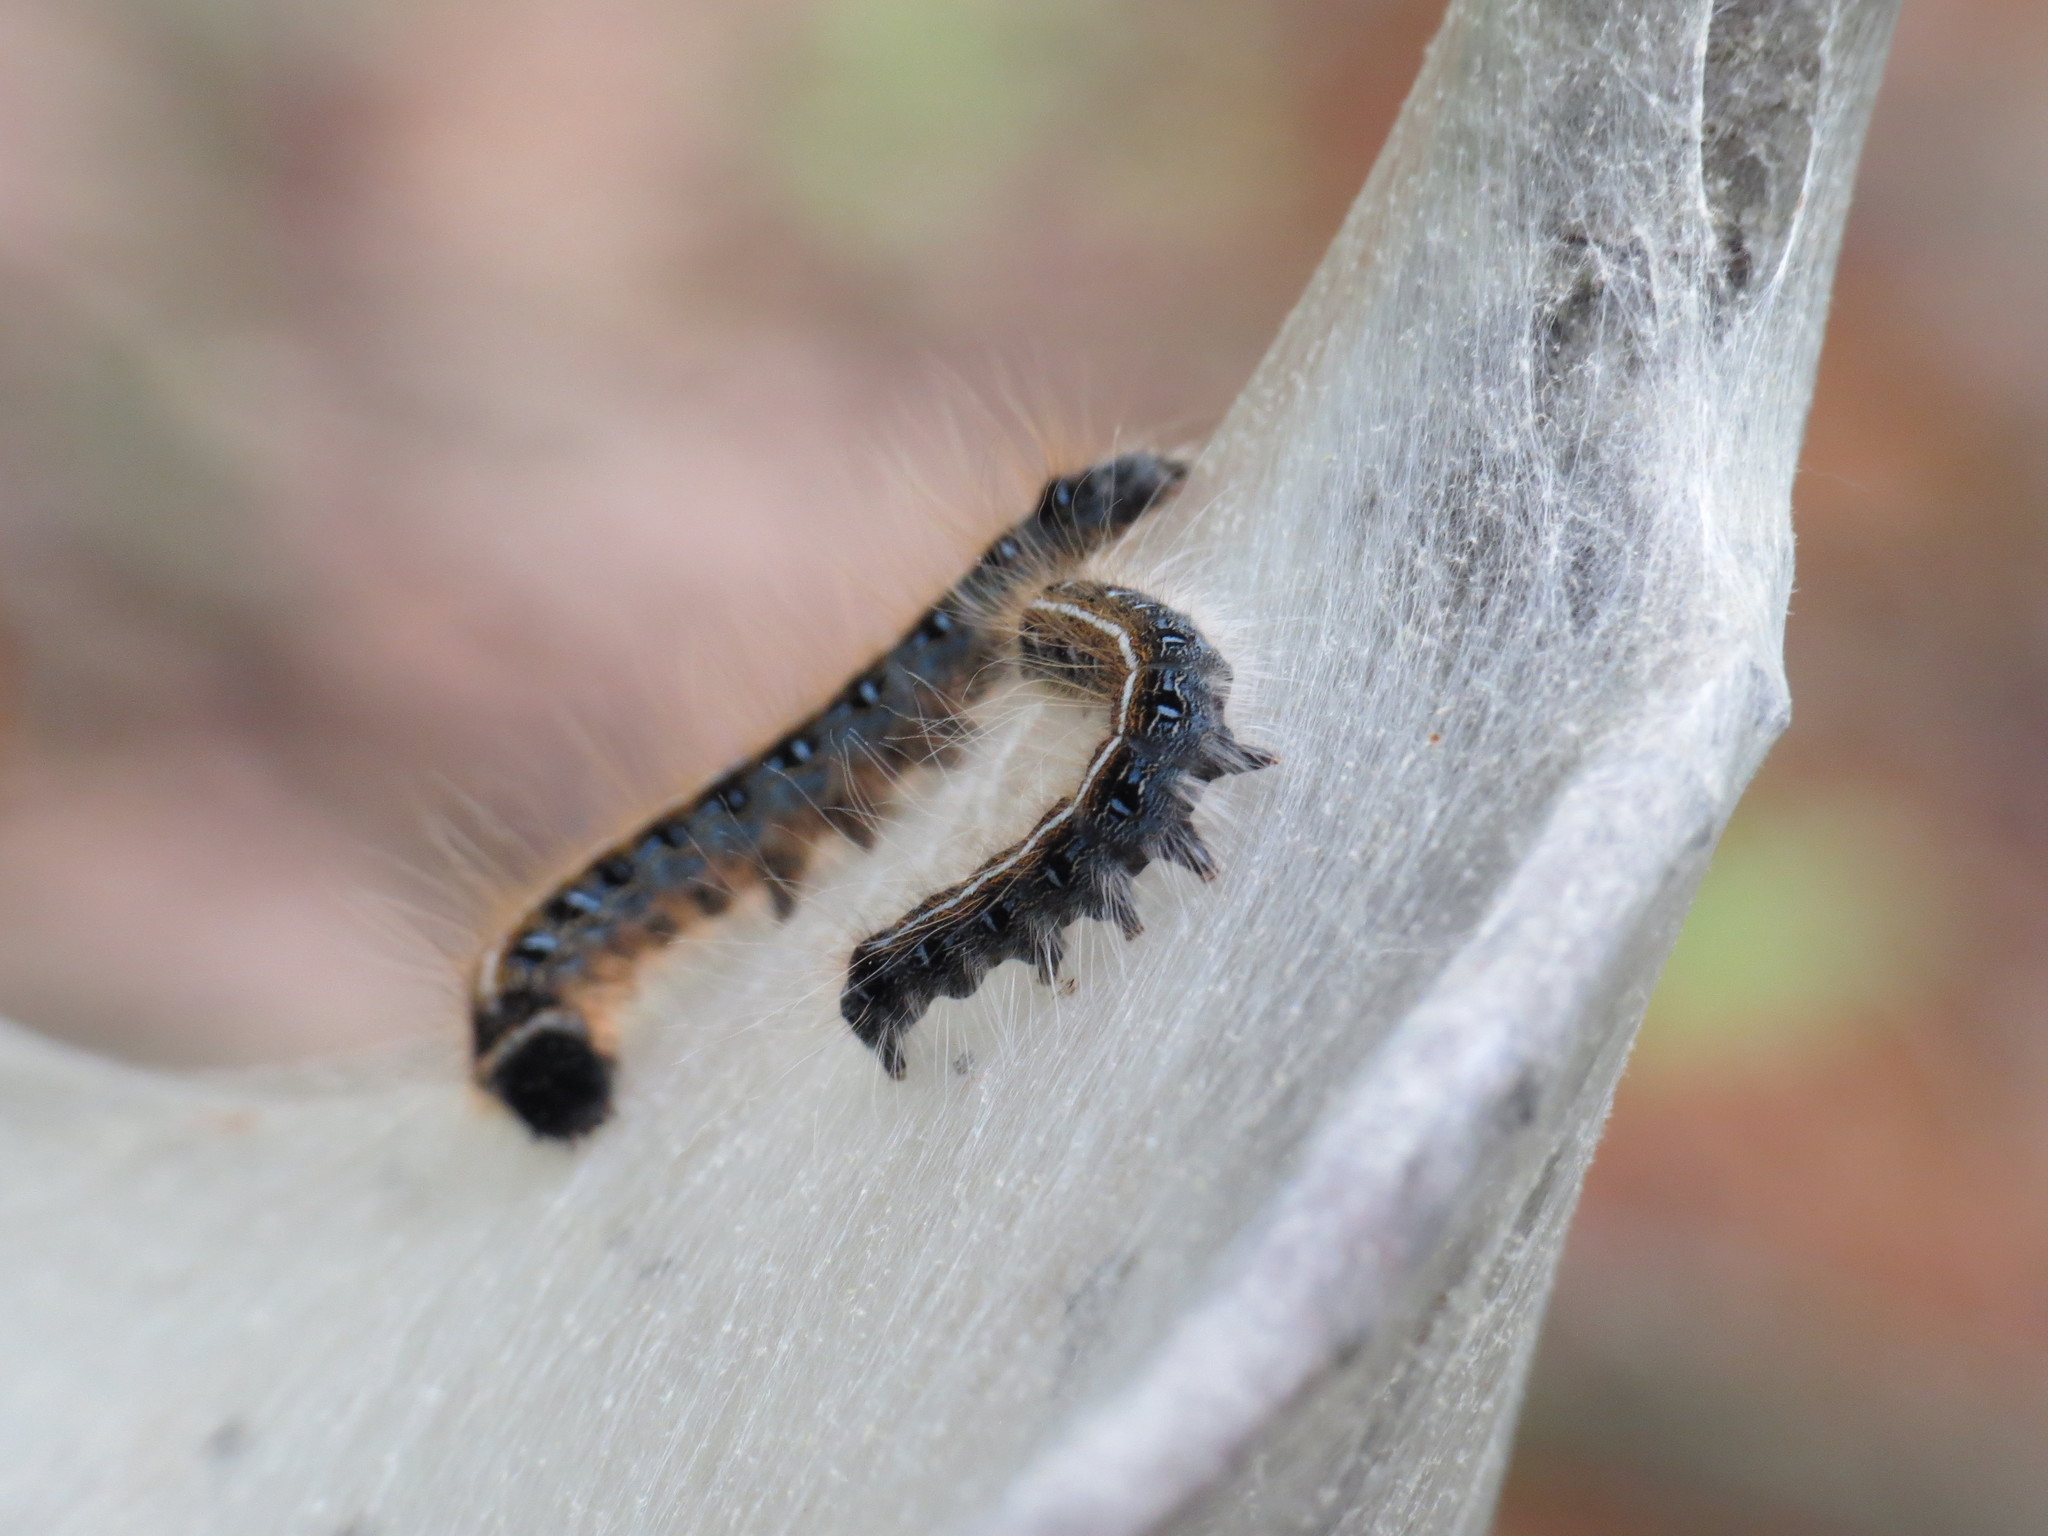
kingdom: Animalia
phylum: Arthropoda
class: Insecta
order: Lepidoptera
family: Lasiocampidae
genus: Malacosoma
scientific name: Malacosoma americana
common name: Eastern tent caterpillar moth
